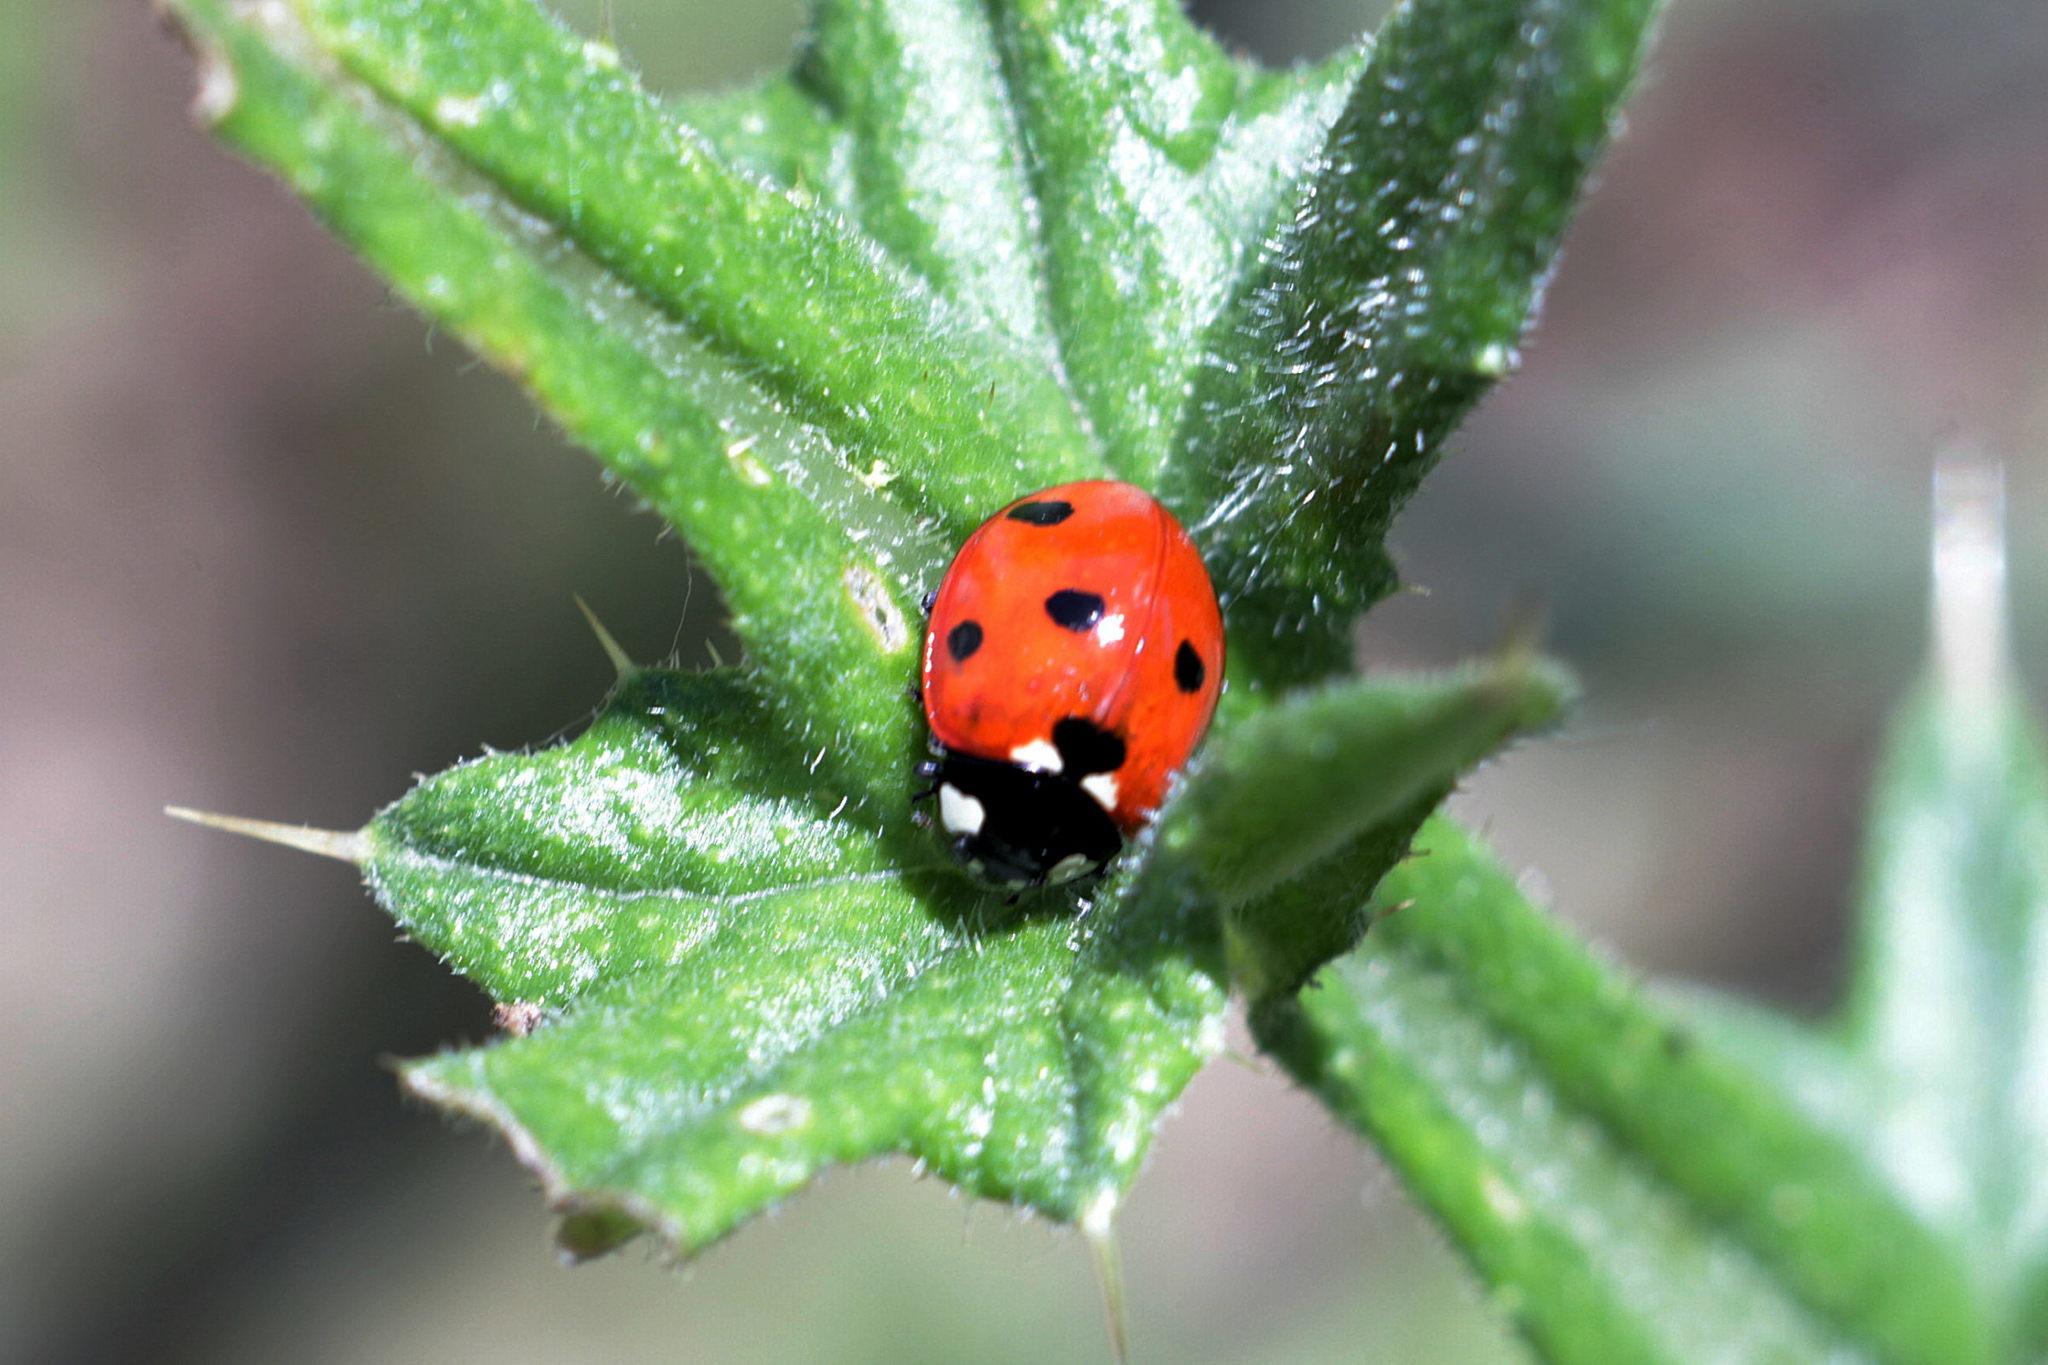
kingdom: Animalia
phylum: Arthropoda
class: Insecta
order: Coleoptera
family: Coccinellidae
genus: Coccinella
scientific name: Coccinella septempunctata
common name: Sevenspotted lady beetle
